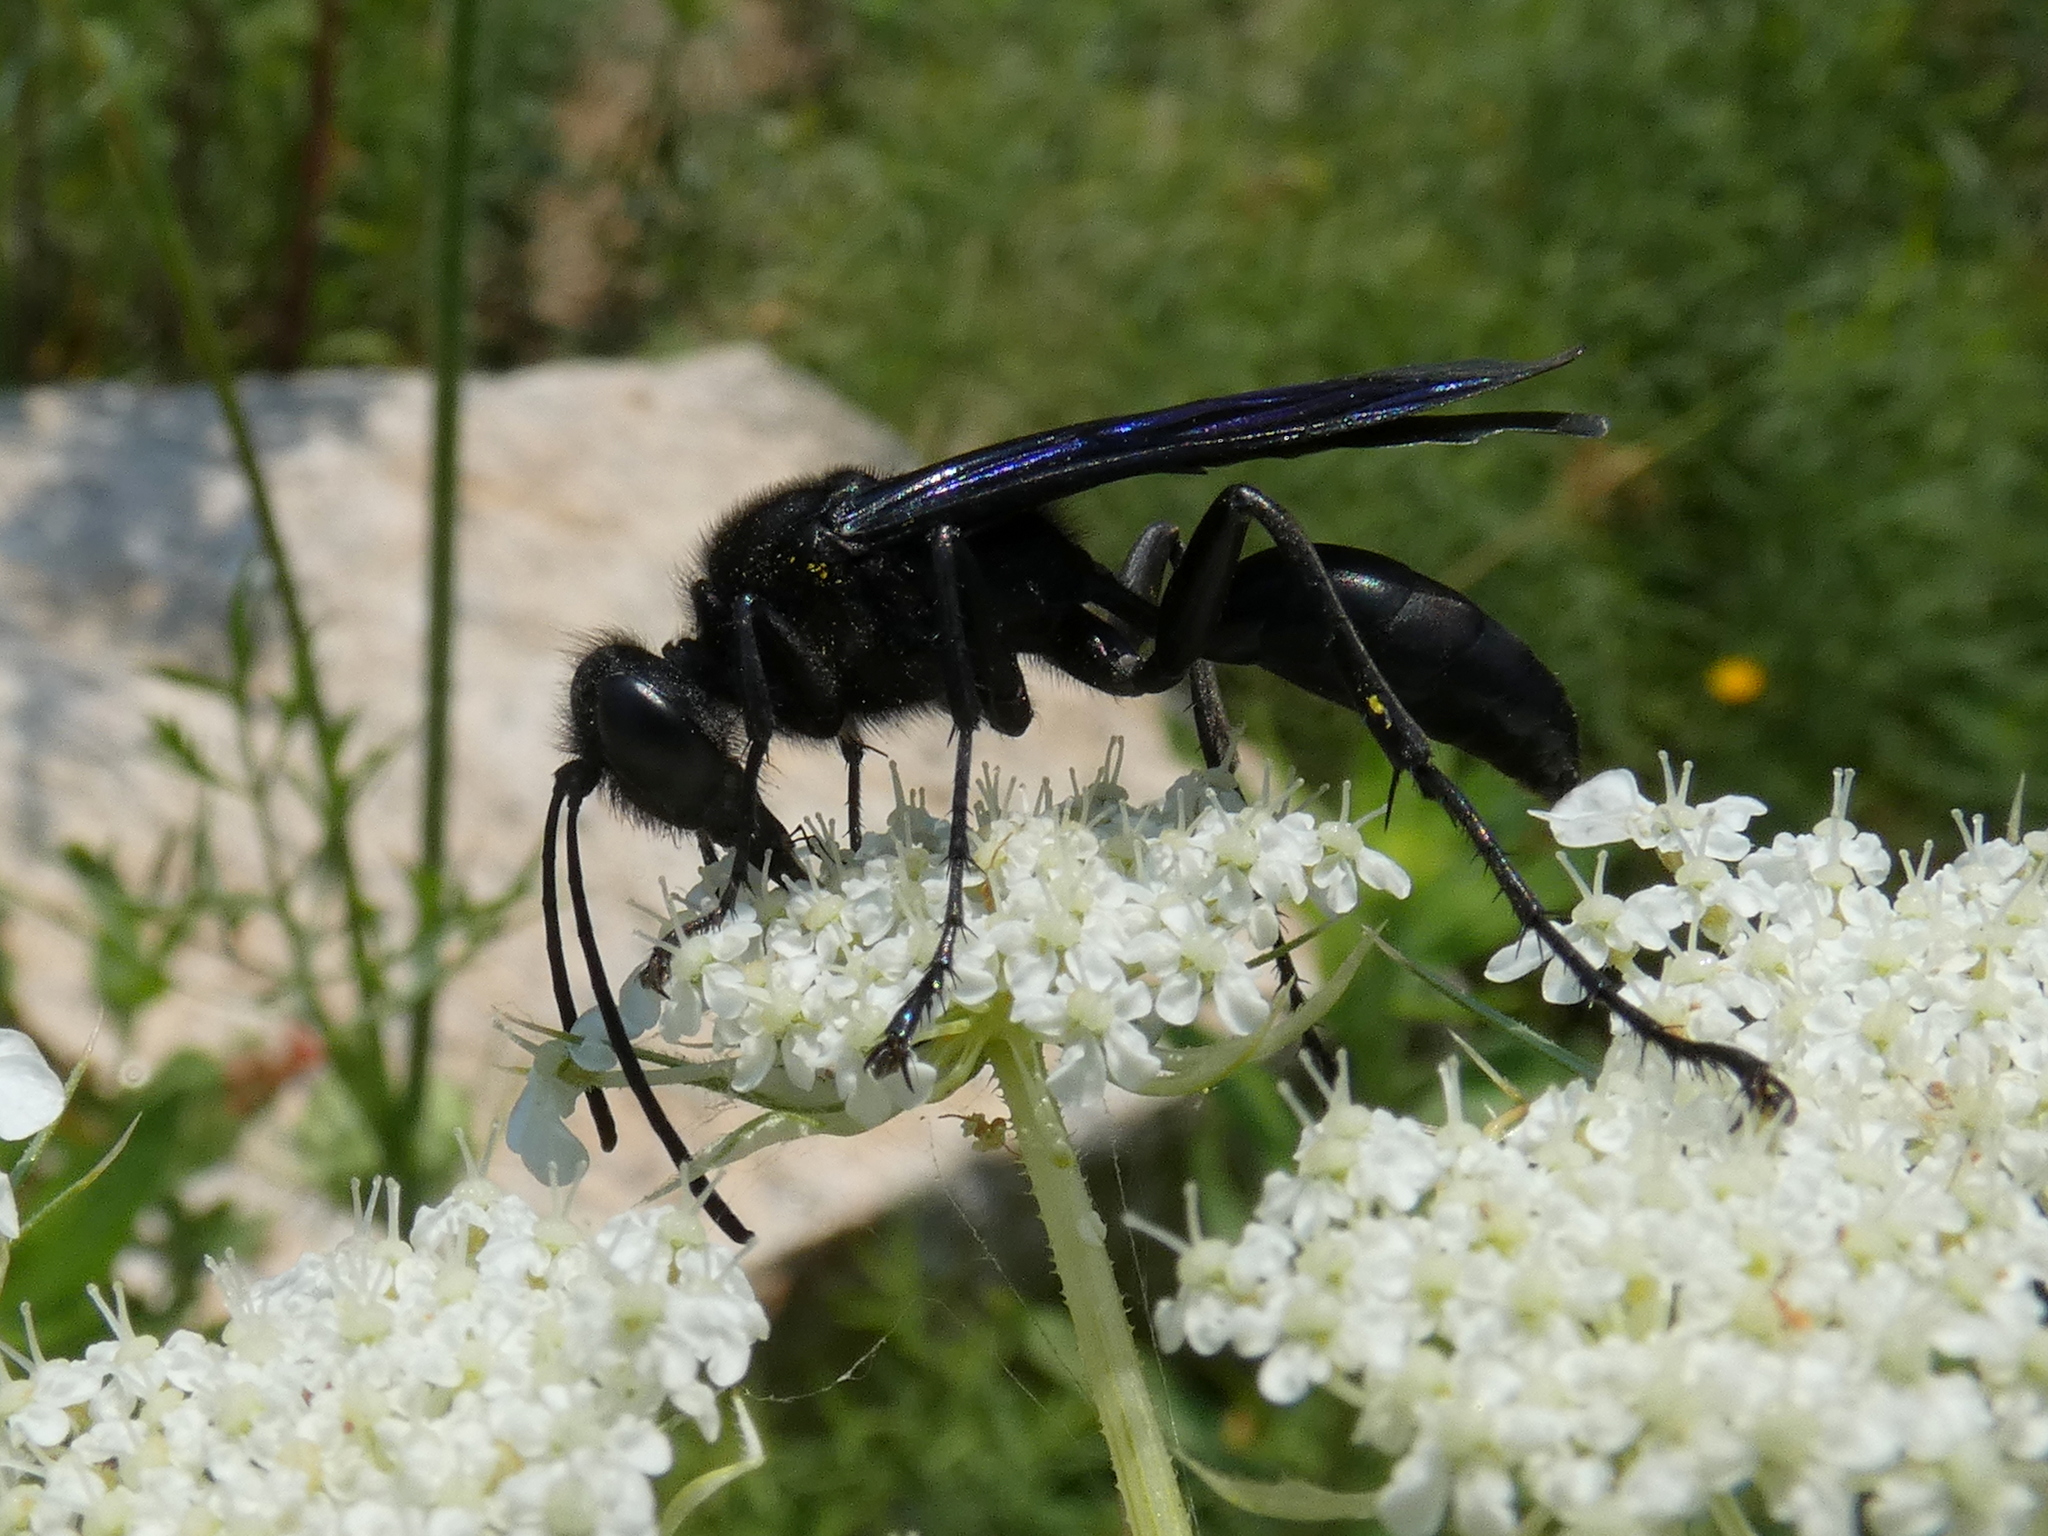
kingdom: Animalia
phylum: Arthropoda
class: Insecta
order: Hymenoptera
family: Sphecidae
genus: Sphex
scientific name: Sphex pensylvanicus
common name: Great black digger wasp
